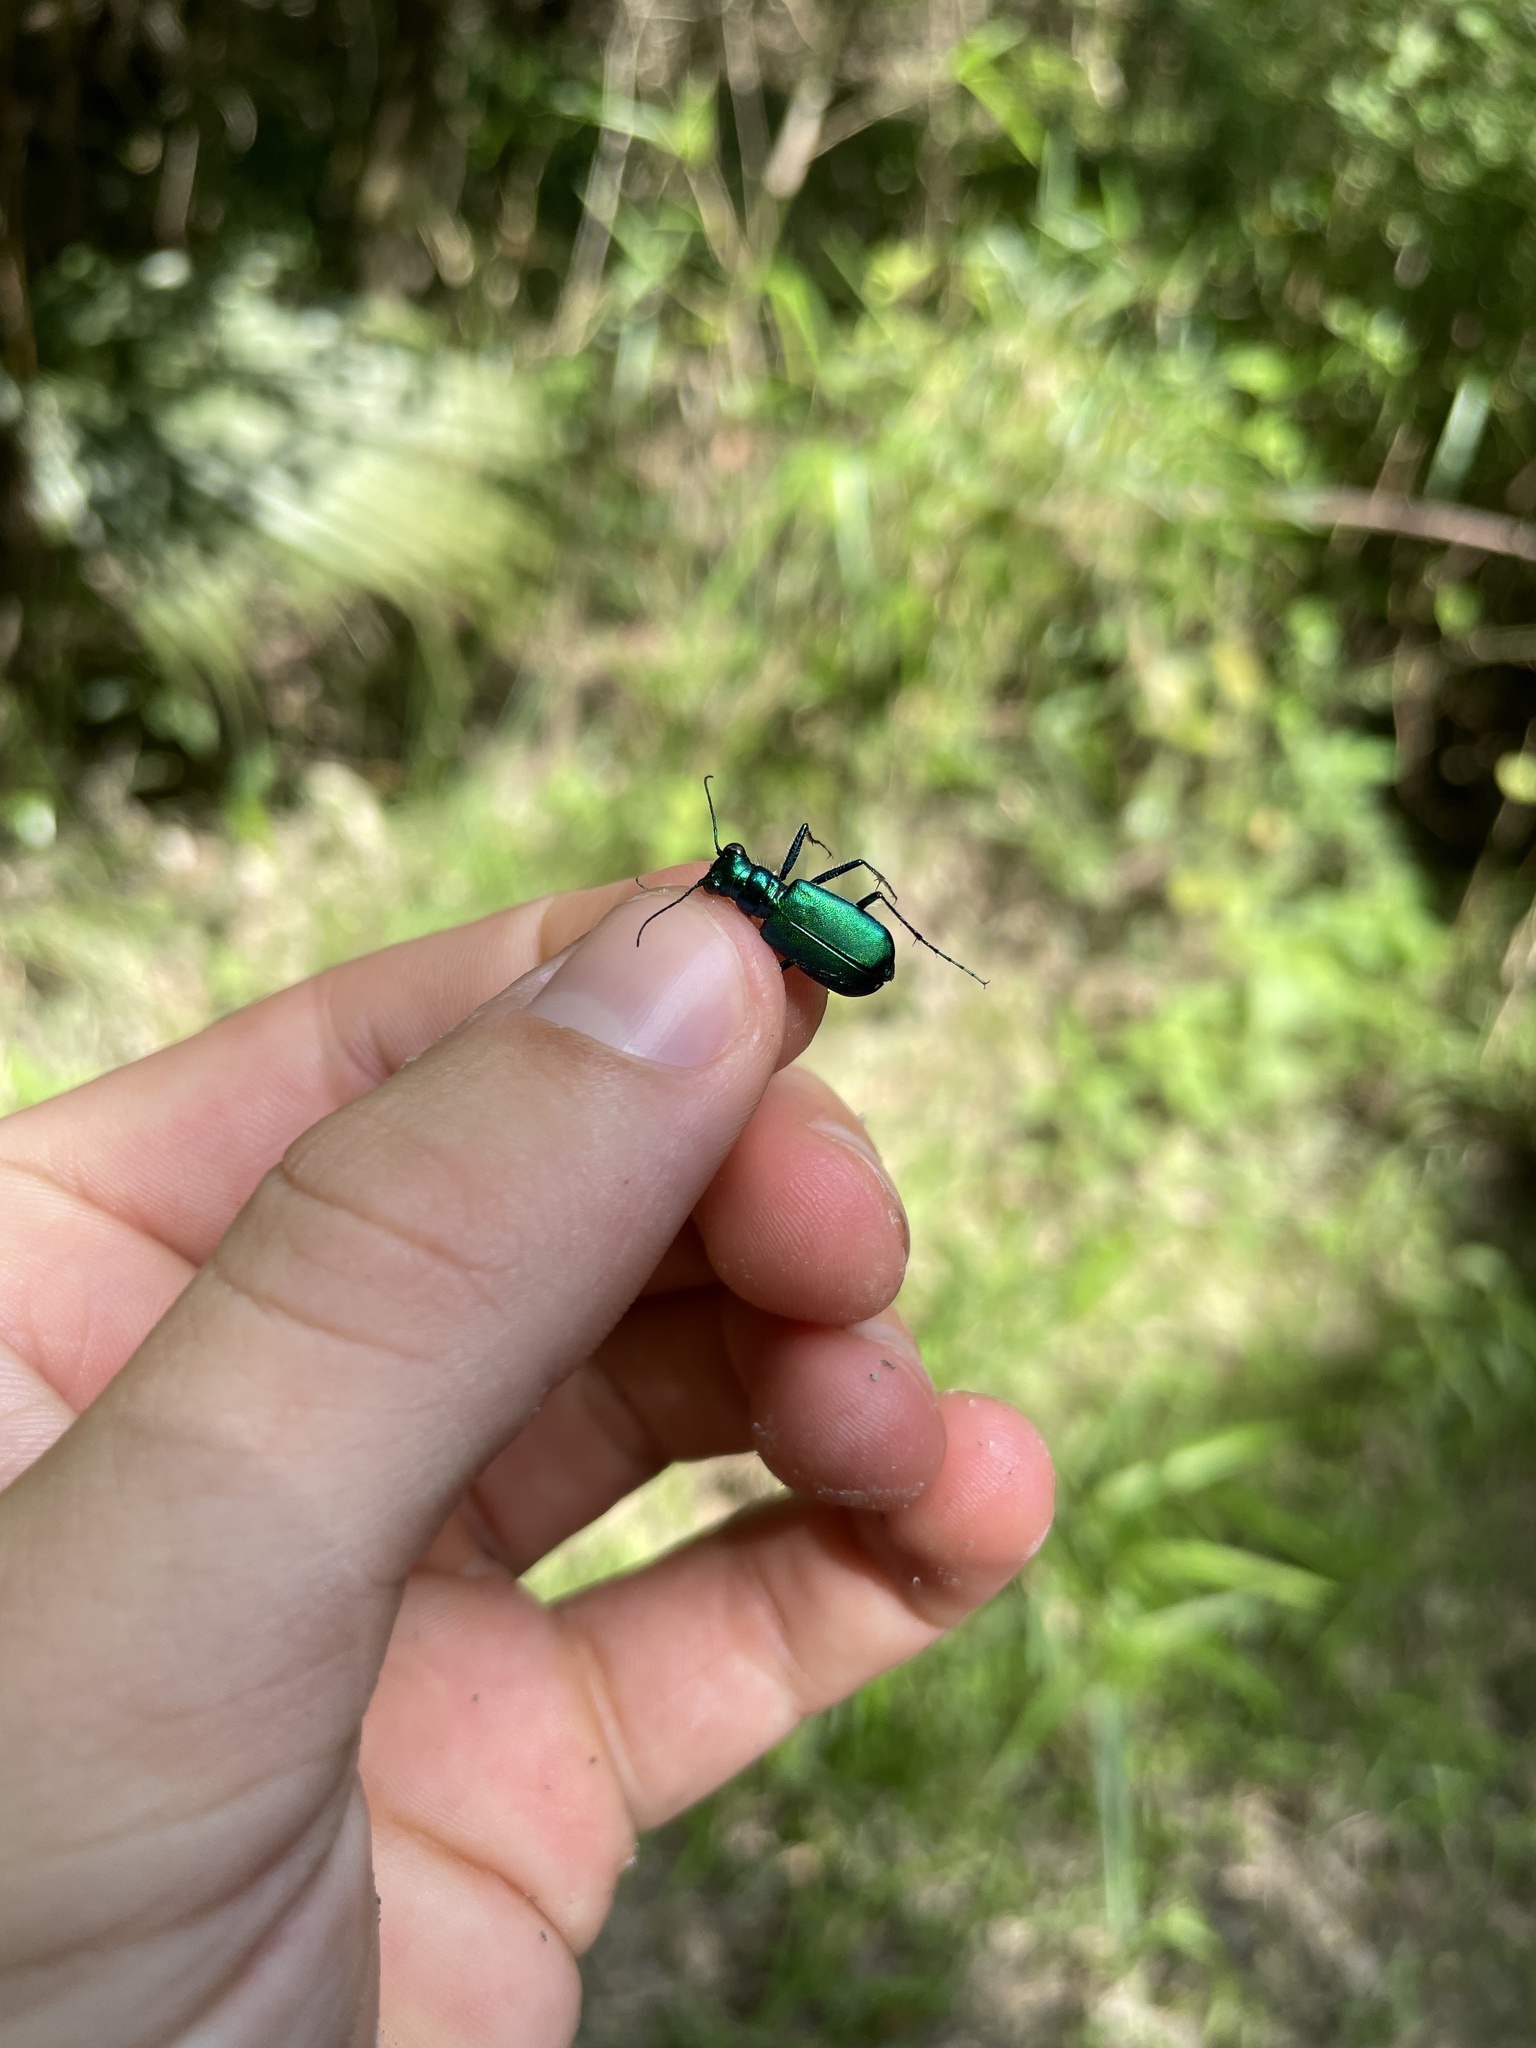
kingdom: Animalia
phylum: Arthropoda
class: Insecta
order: Coleoptera
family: Carabidae
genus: Cicindela
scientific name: Cicindela sexguttata
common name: Six-spotted tiger beetle
